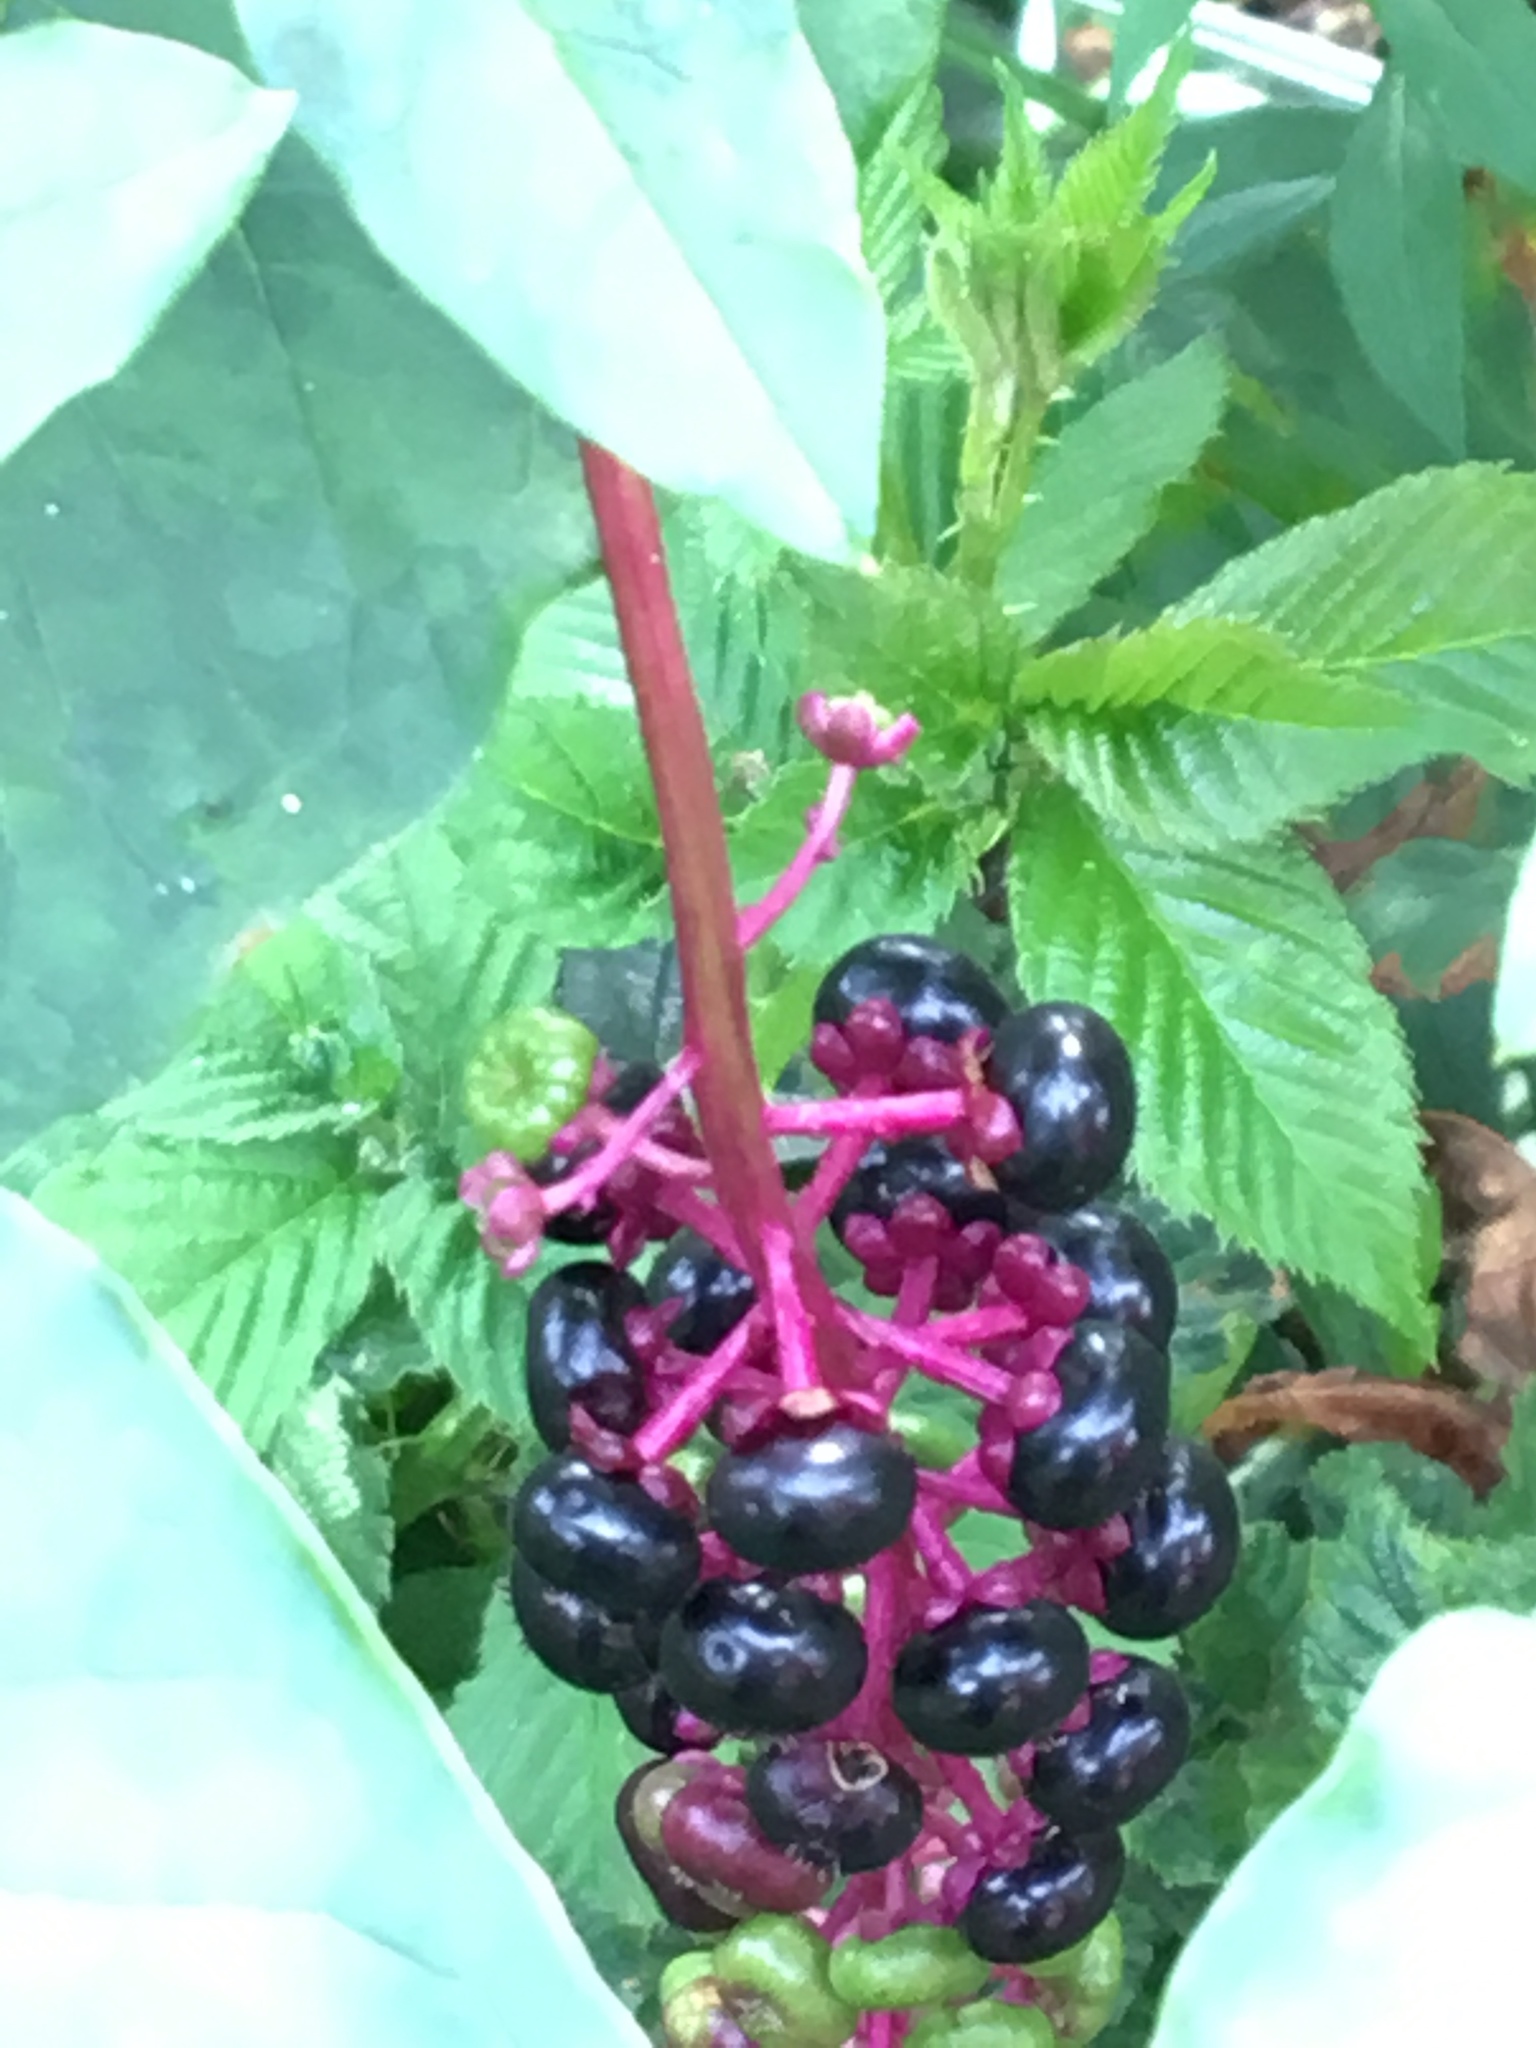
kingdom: Plantae
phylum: Tracheophyta
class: Magnoliopsida
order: Caryophyllales
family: Phytolaccaceae
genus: Phytolacca
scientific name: Phytolacca americana
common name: American pokeweed
